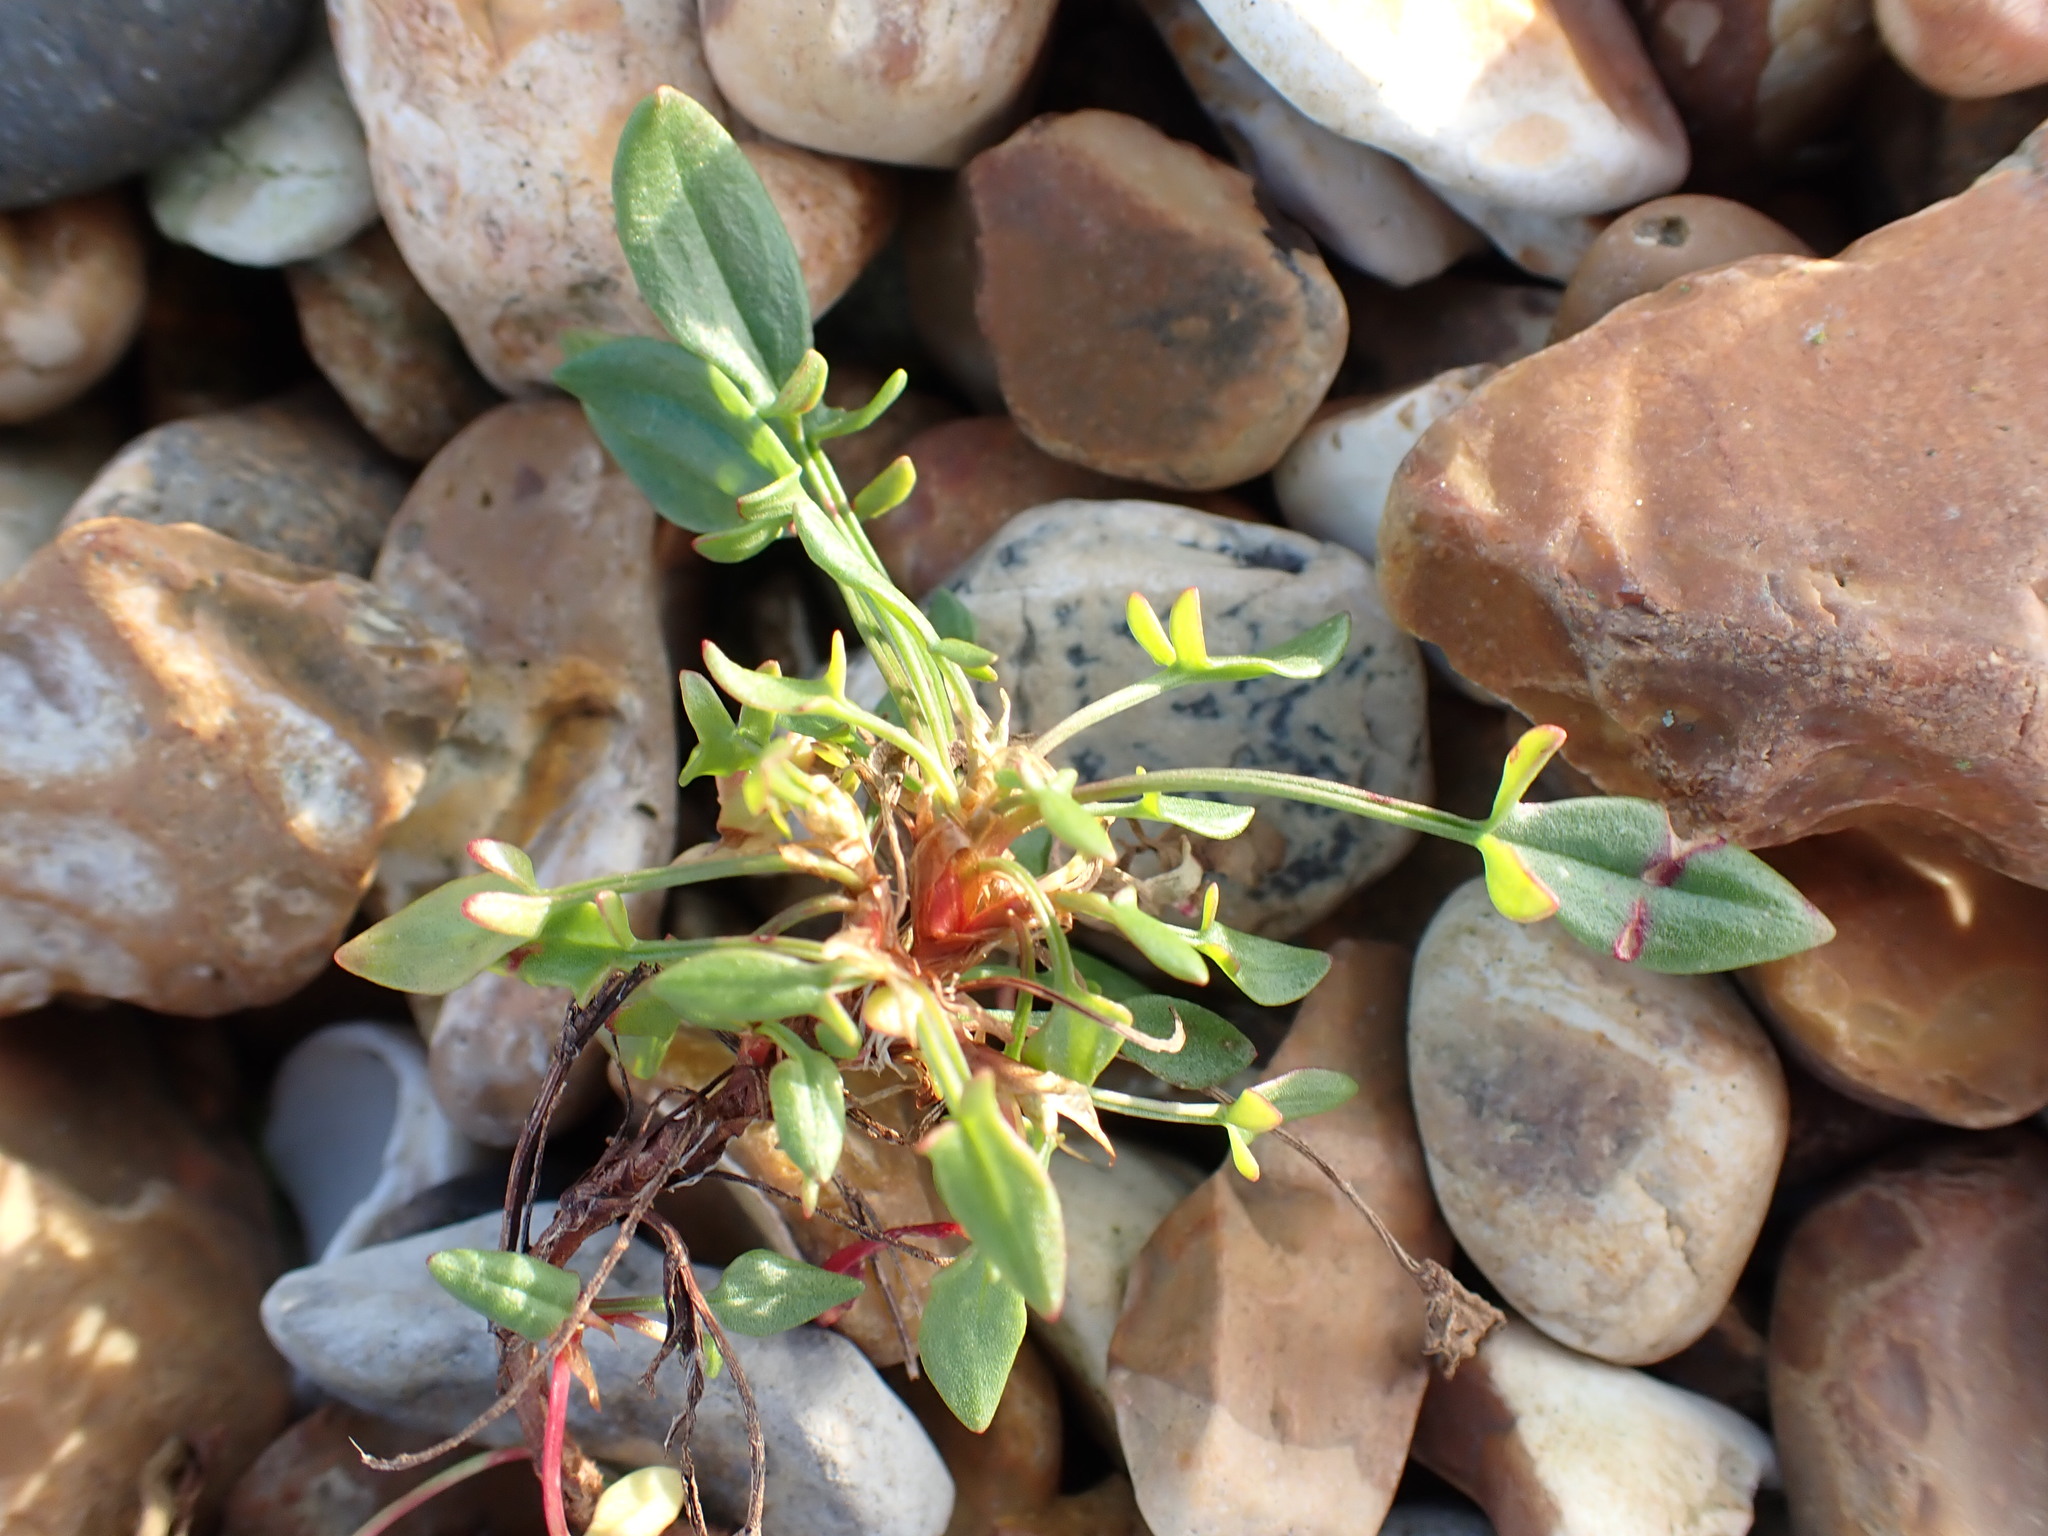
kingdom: Plantae
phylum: Tracheophyta
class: Magnoliopsida
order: Caryophyllales
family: Polygonaceae
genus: Rumex
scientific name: Rumex acetosella
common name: Common sheep sorrel
